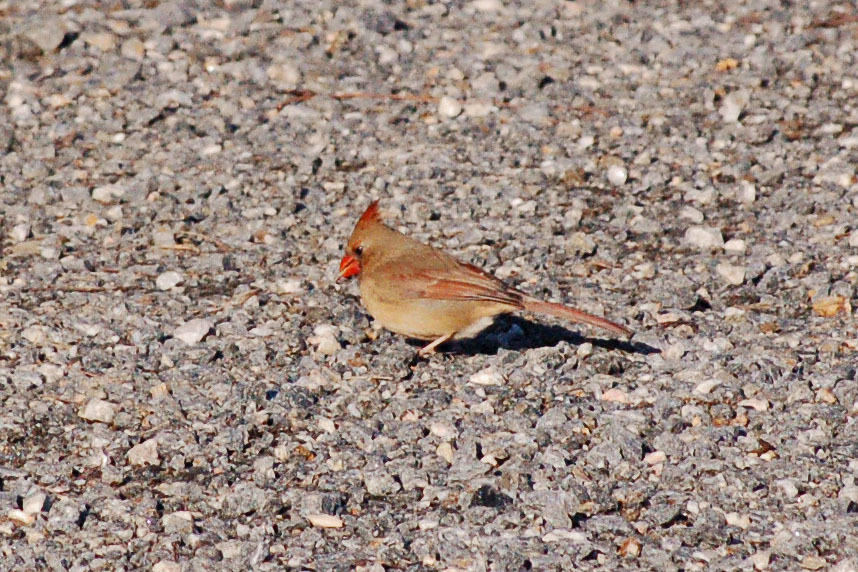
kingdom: Animalia
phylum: Chordata
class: Aves
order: Passeriformes
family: Cardinalidae
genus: Cardinalis
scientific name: Cardinalis cardinalis
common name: Northern cardinal
